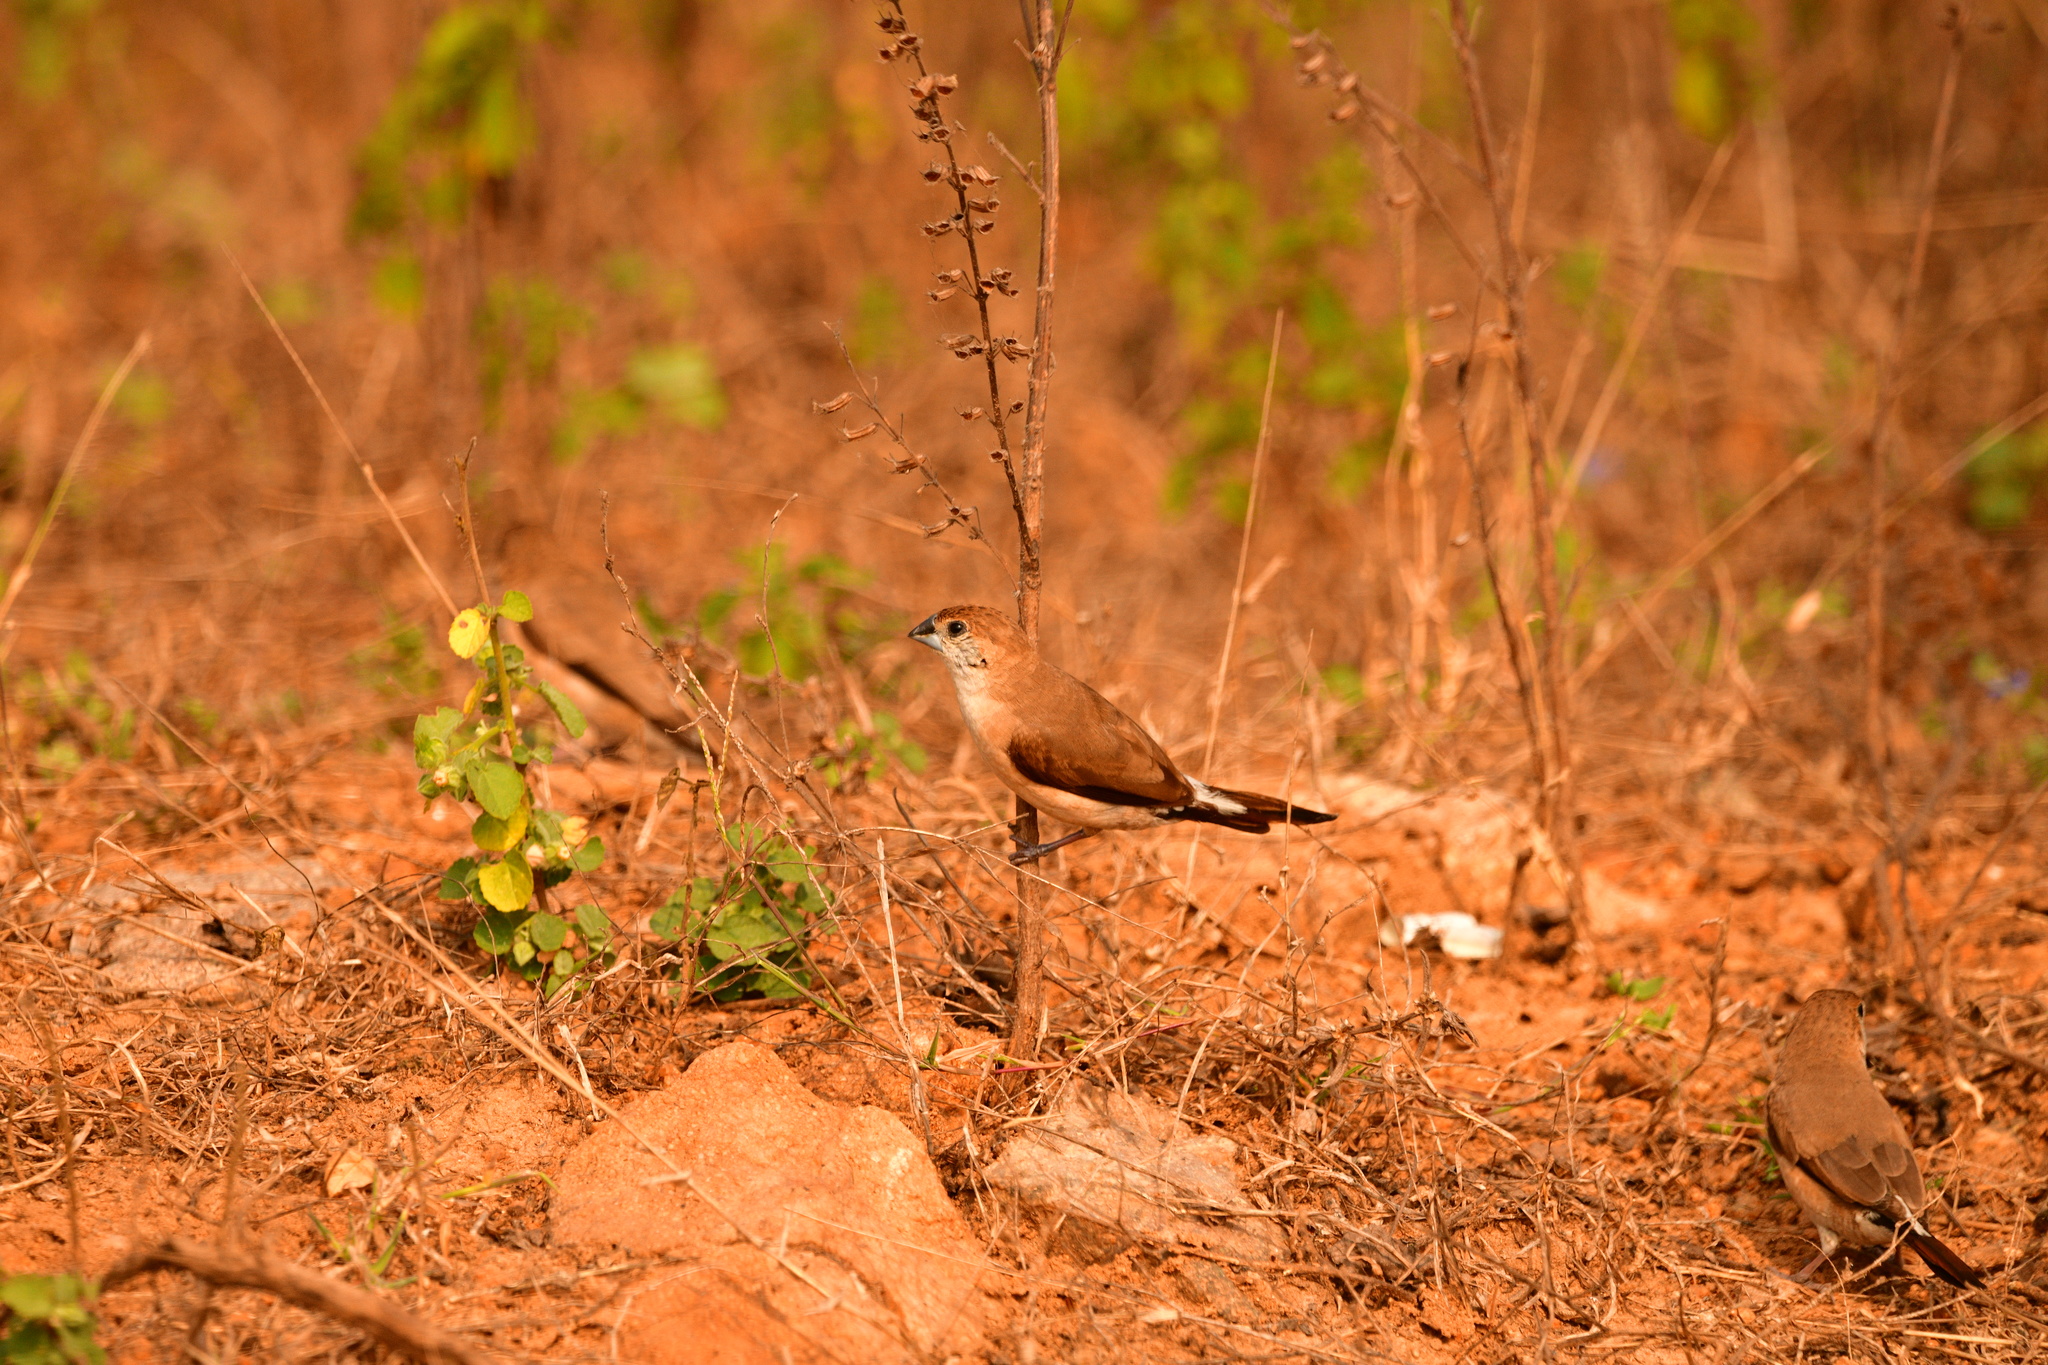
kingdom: Animalia
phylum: Chordata
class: Aves
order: Passeriformes
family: Estrildidae
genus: Euodice
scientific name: Euodice malabarica
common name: Indian silverbill
